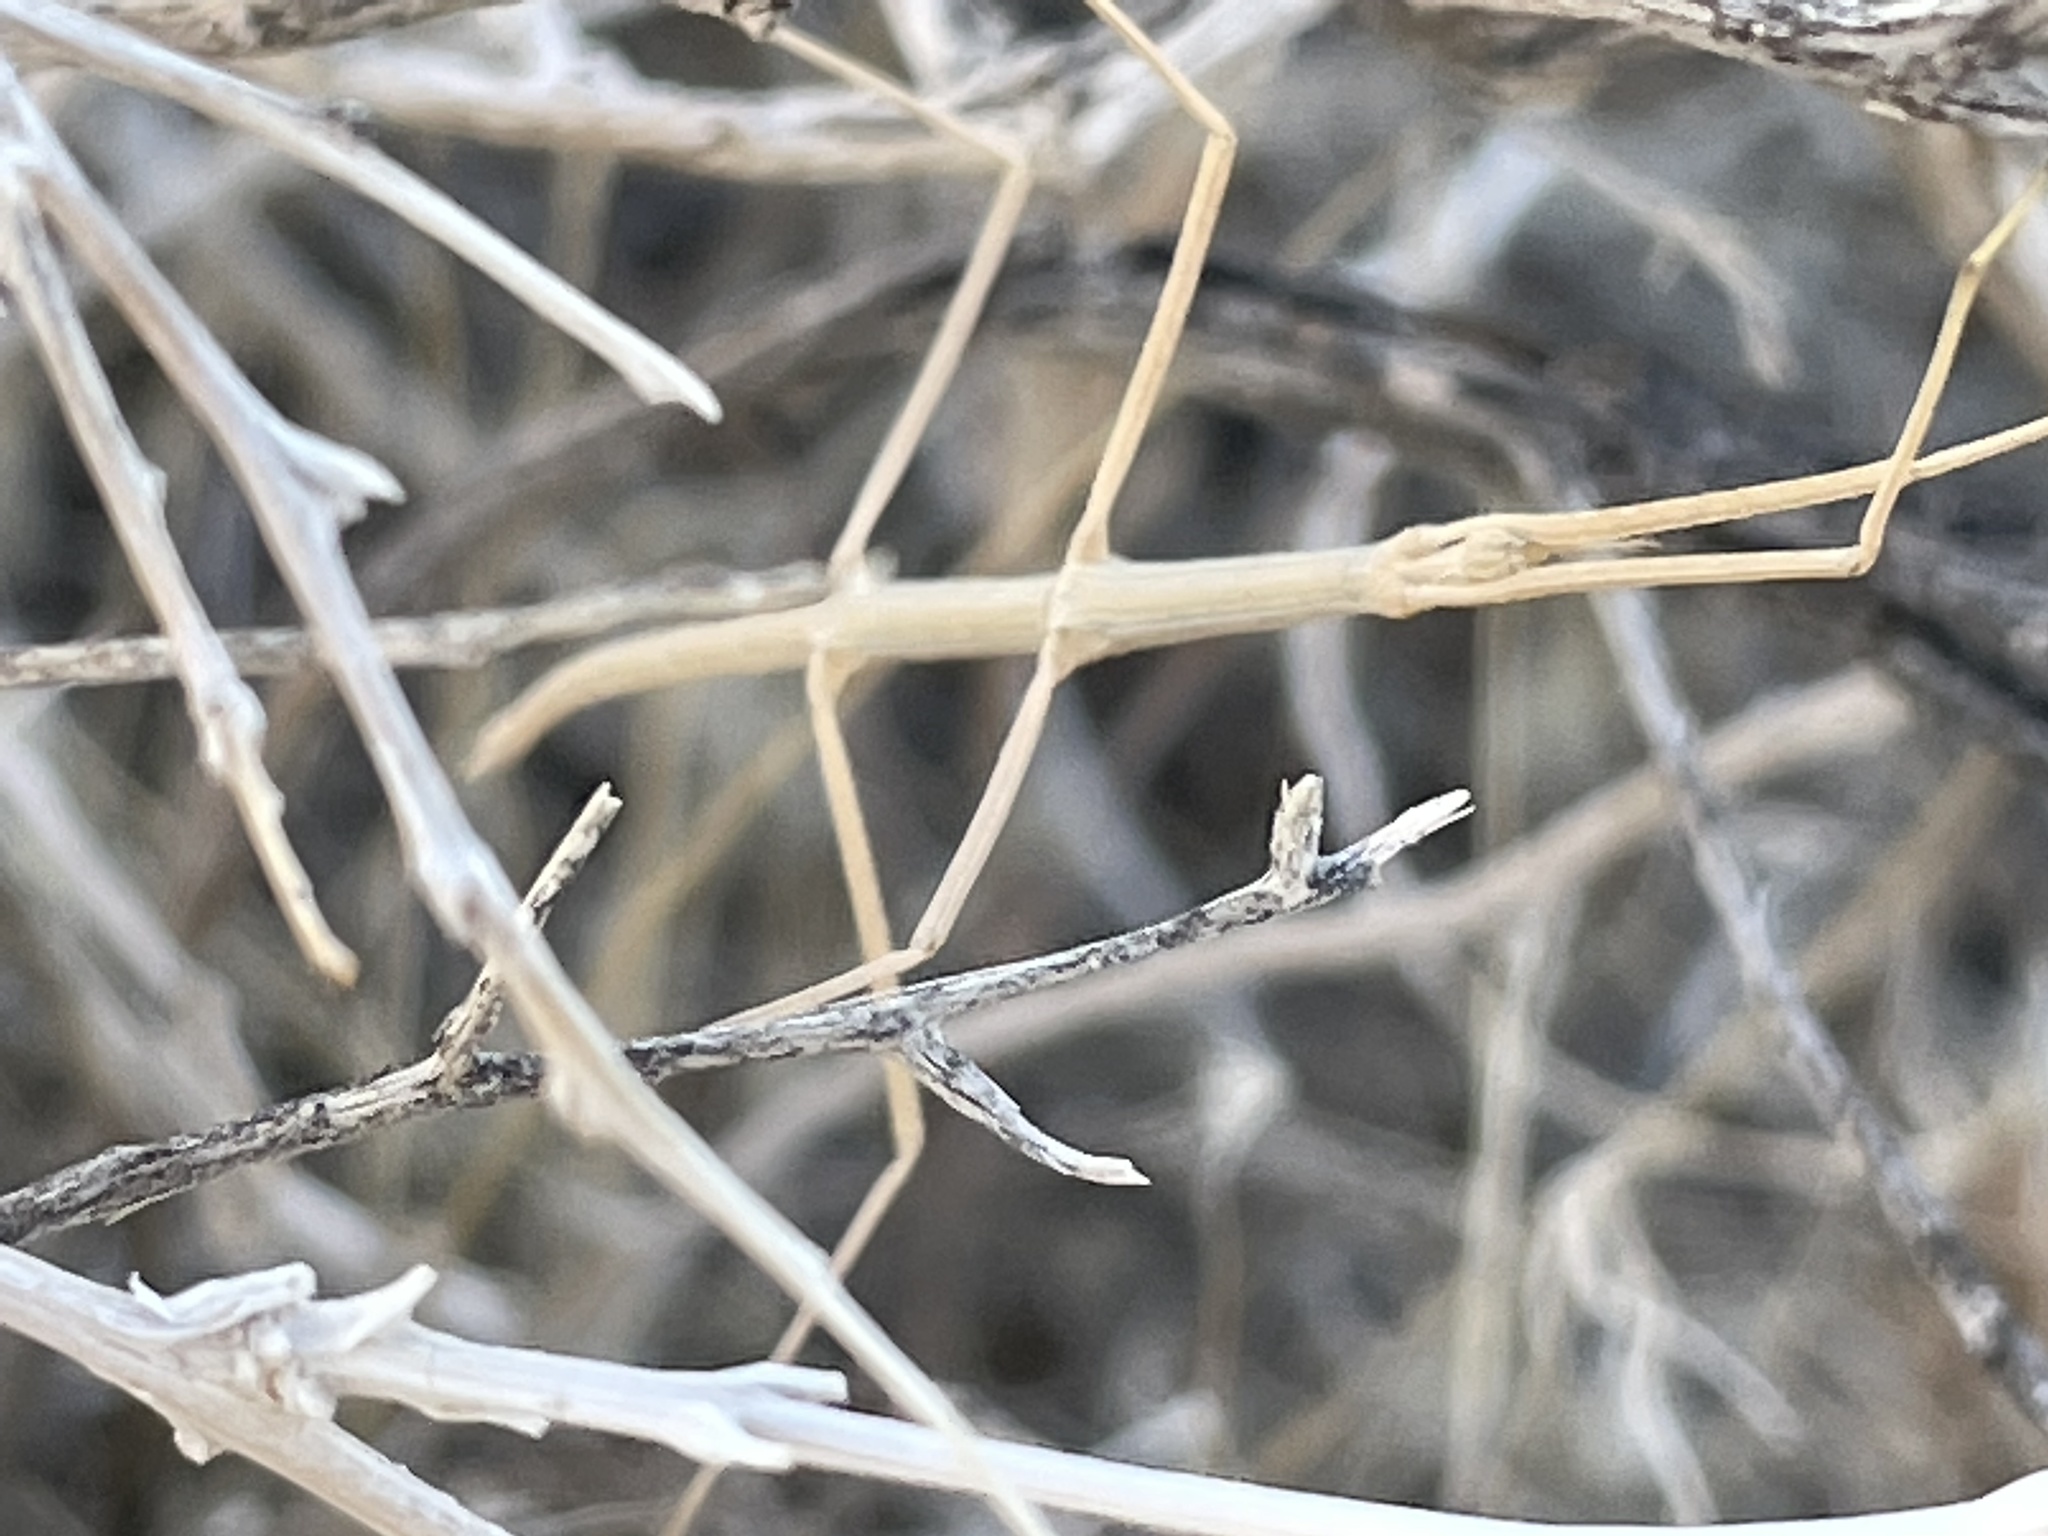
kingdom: Animalia
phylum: Arthropoda
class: Insecta
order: Phasmida
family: Heteronemiidae
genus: Parabacillus
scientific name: Parabacillus hesperus
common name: Western short-horned walkingstick
